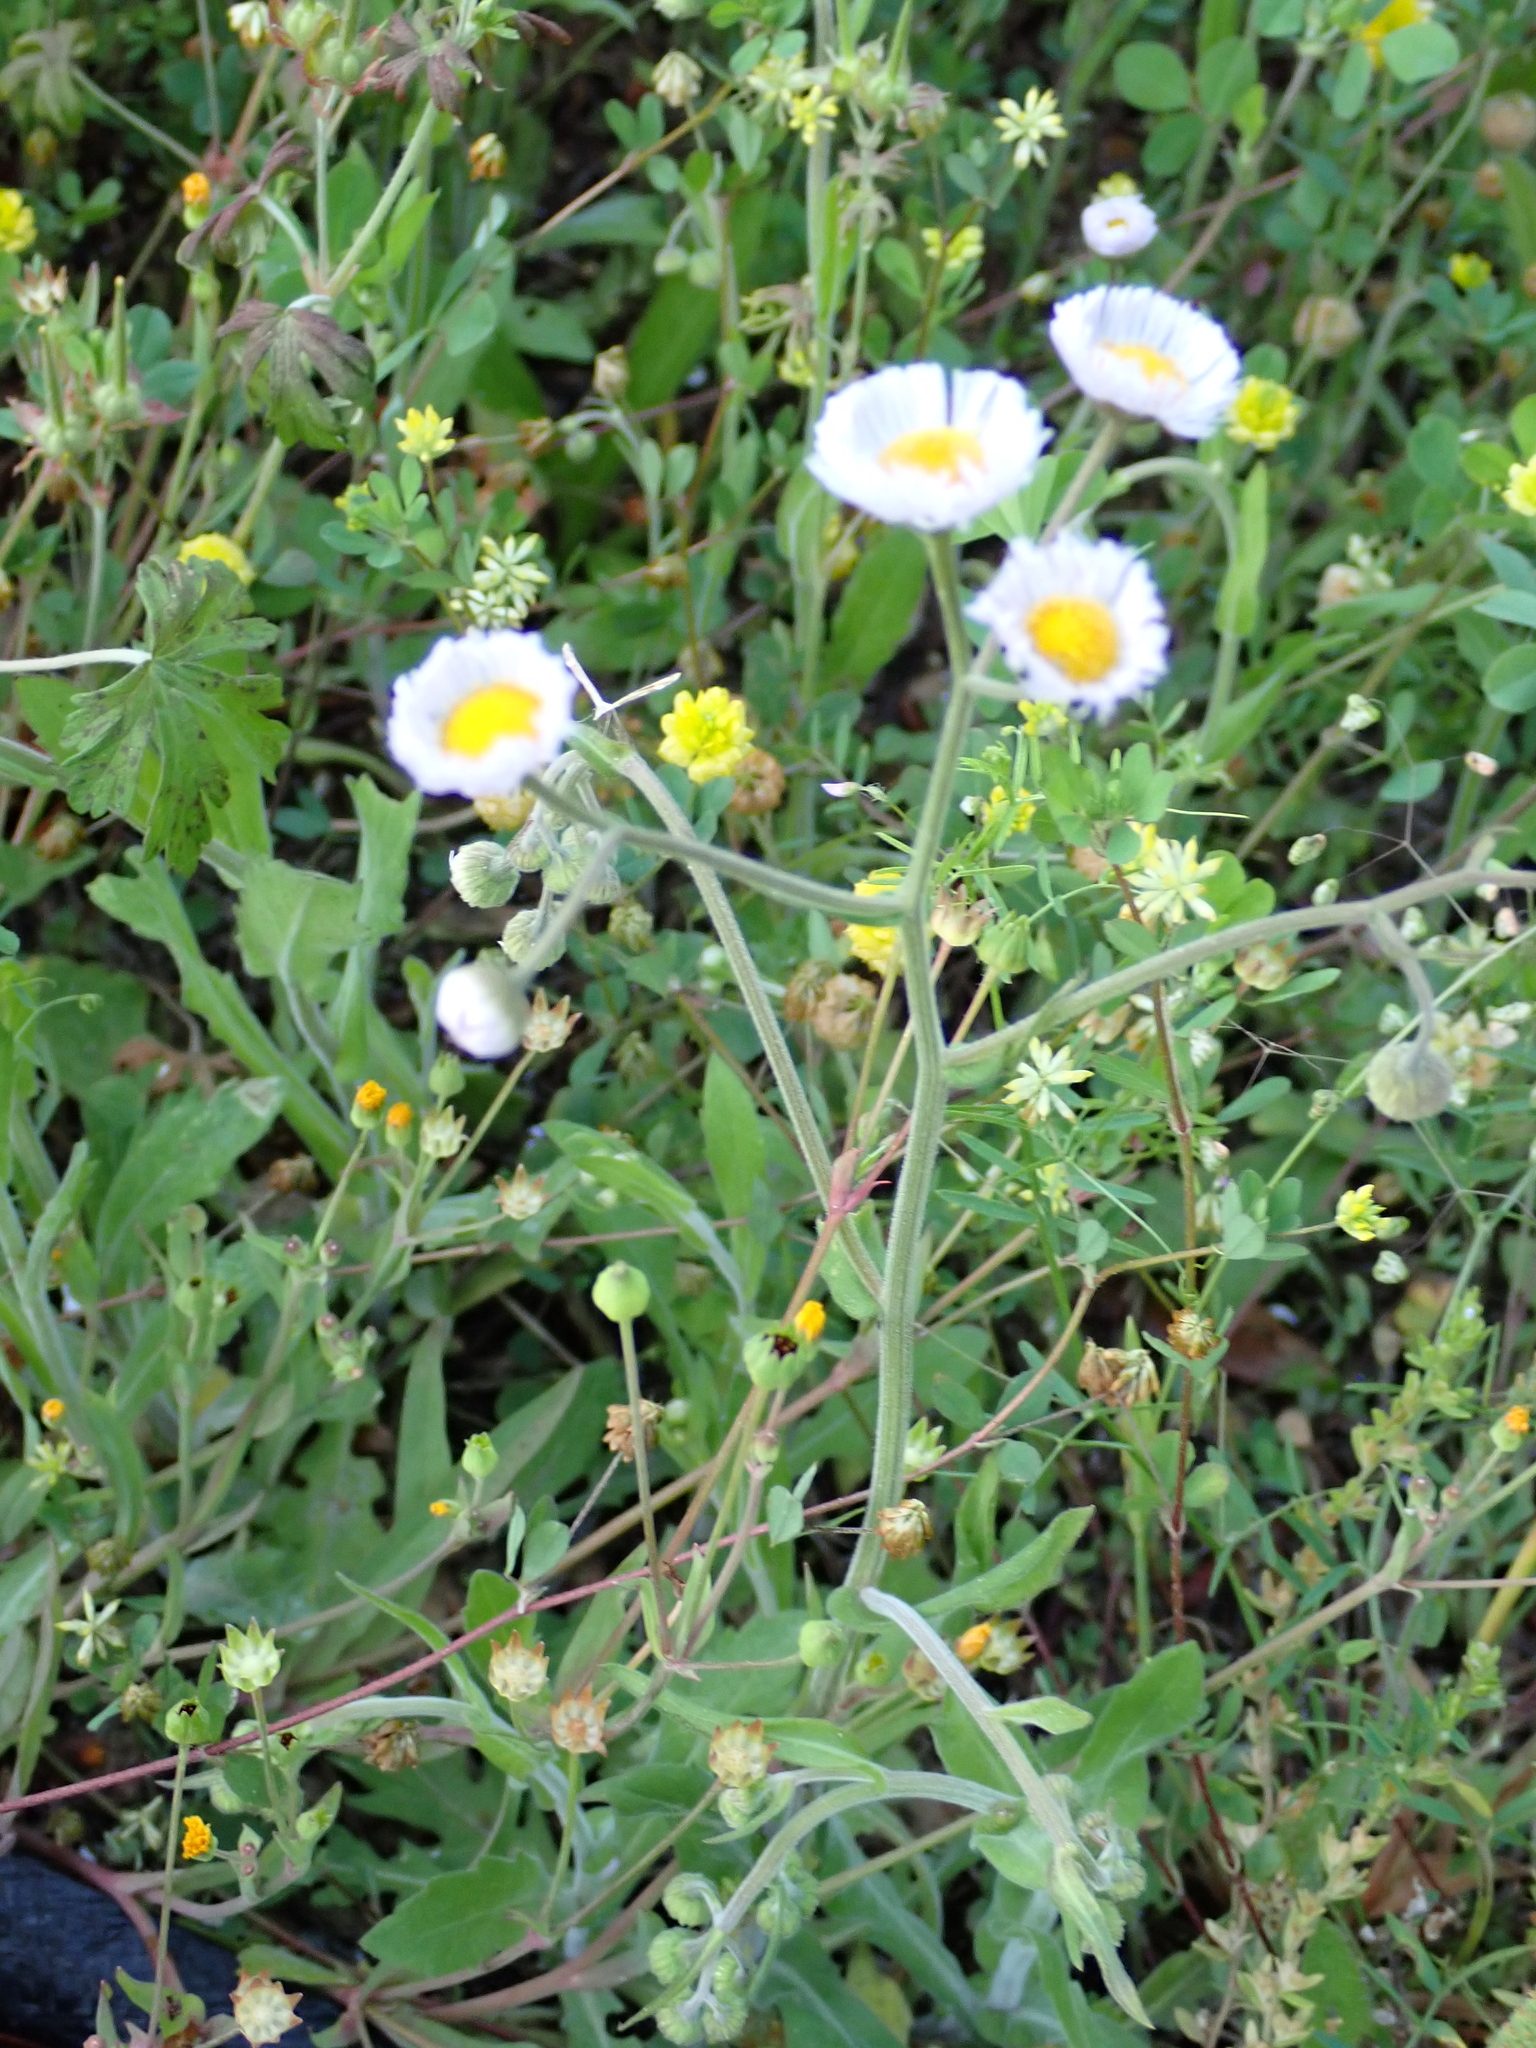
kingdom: Plantae
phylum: Tracheophyta
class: Magnoliopsida
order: Asterales
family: Asteraceae
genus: Erigeron
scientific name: Erigeron quercifolius
